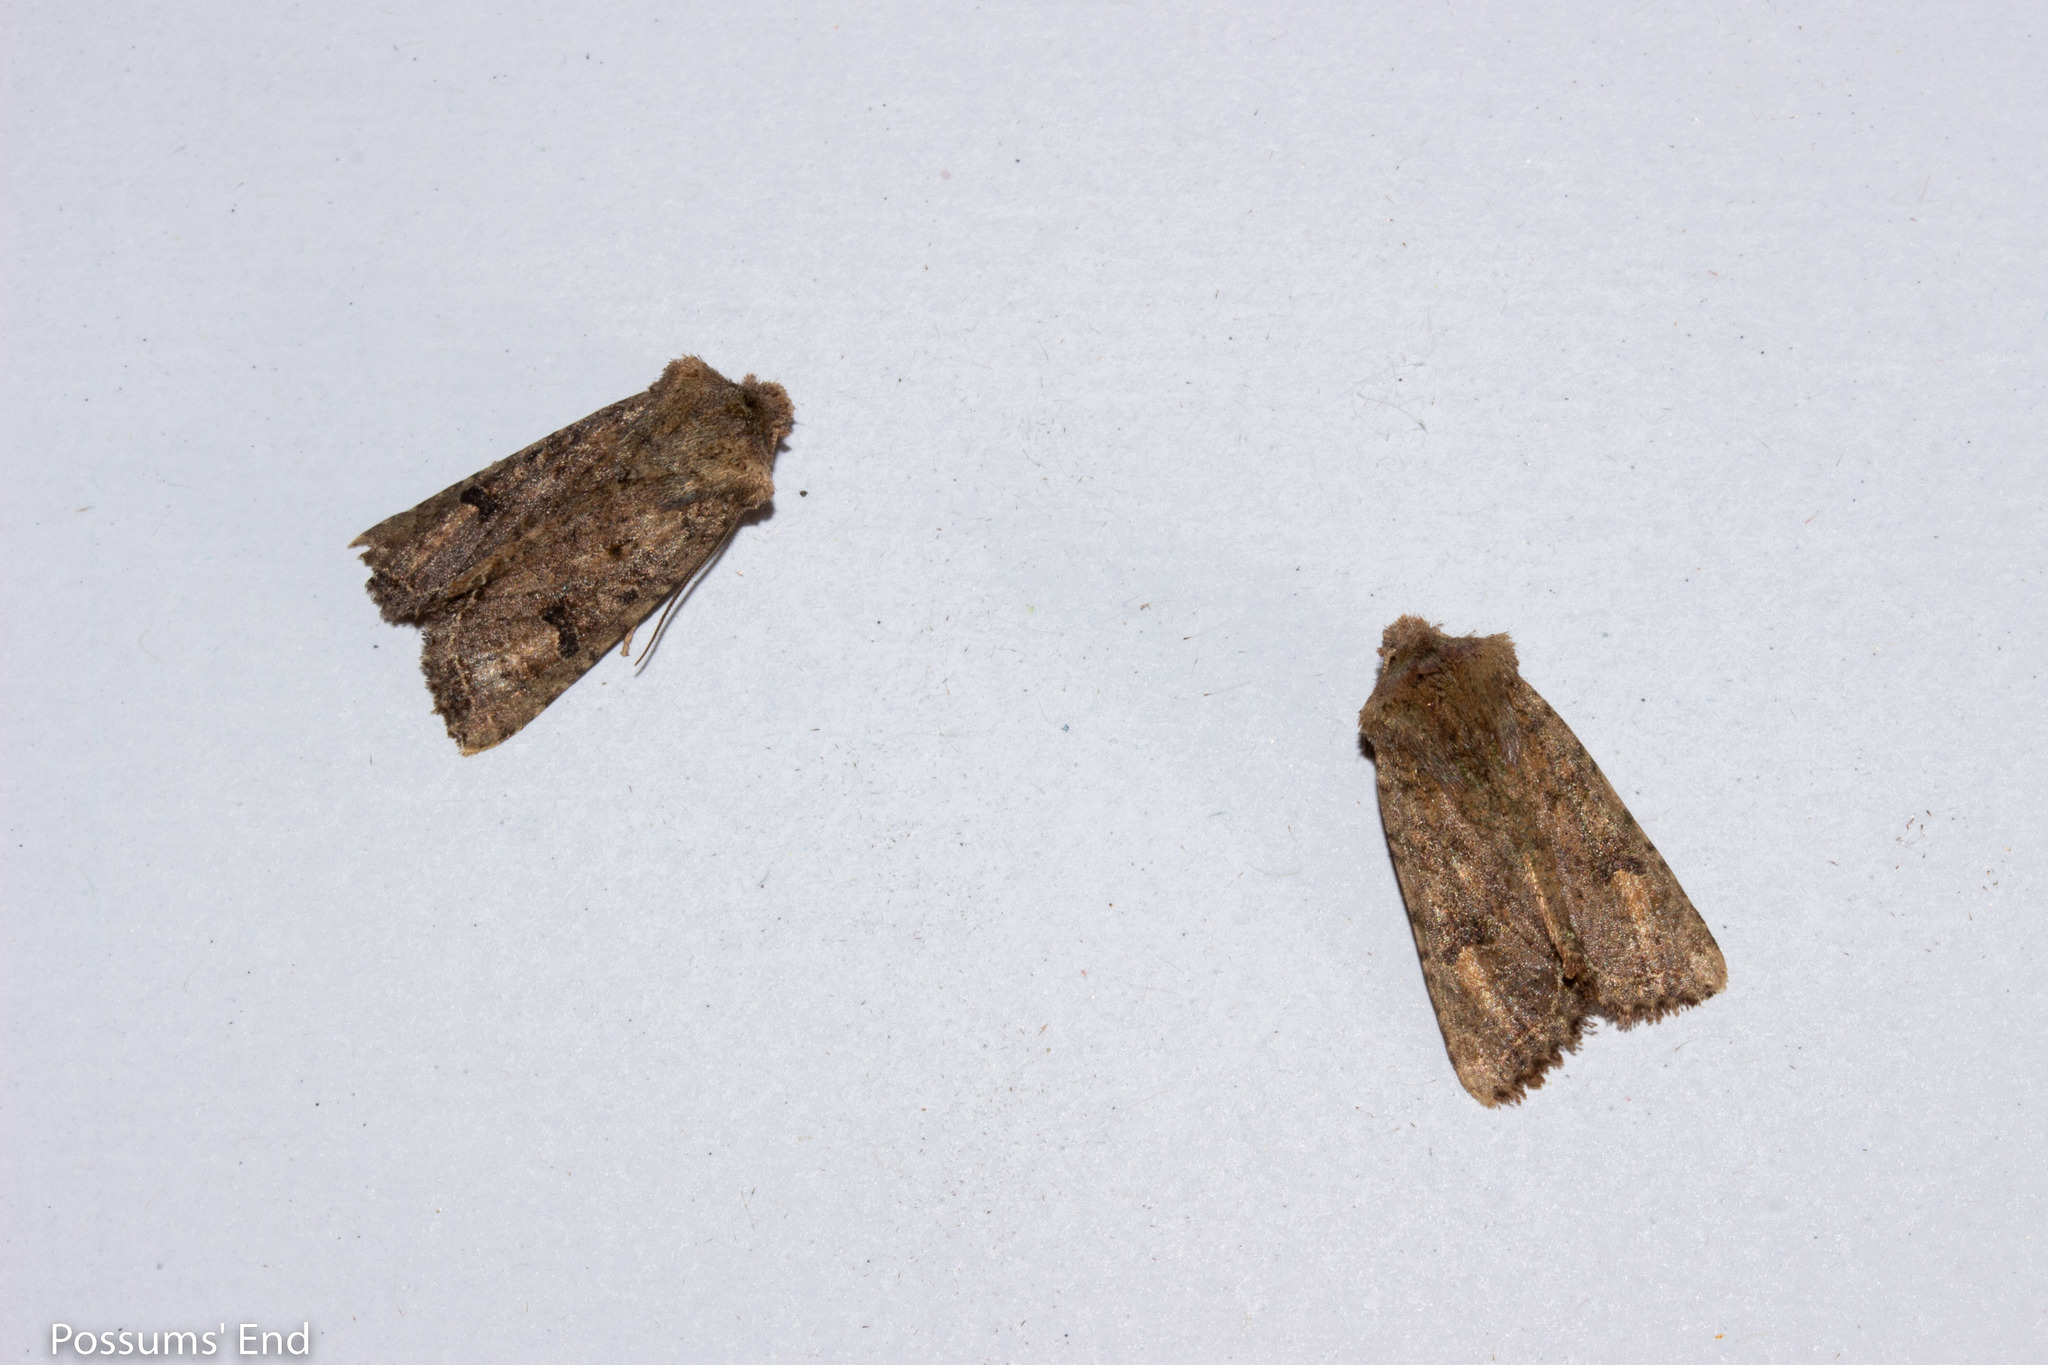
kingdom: Animalia
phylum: Arthropoda
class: Insecta
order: Lepidoptera
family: Noctuidae
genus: Meterana
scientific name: Meterana inchoata
